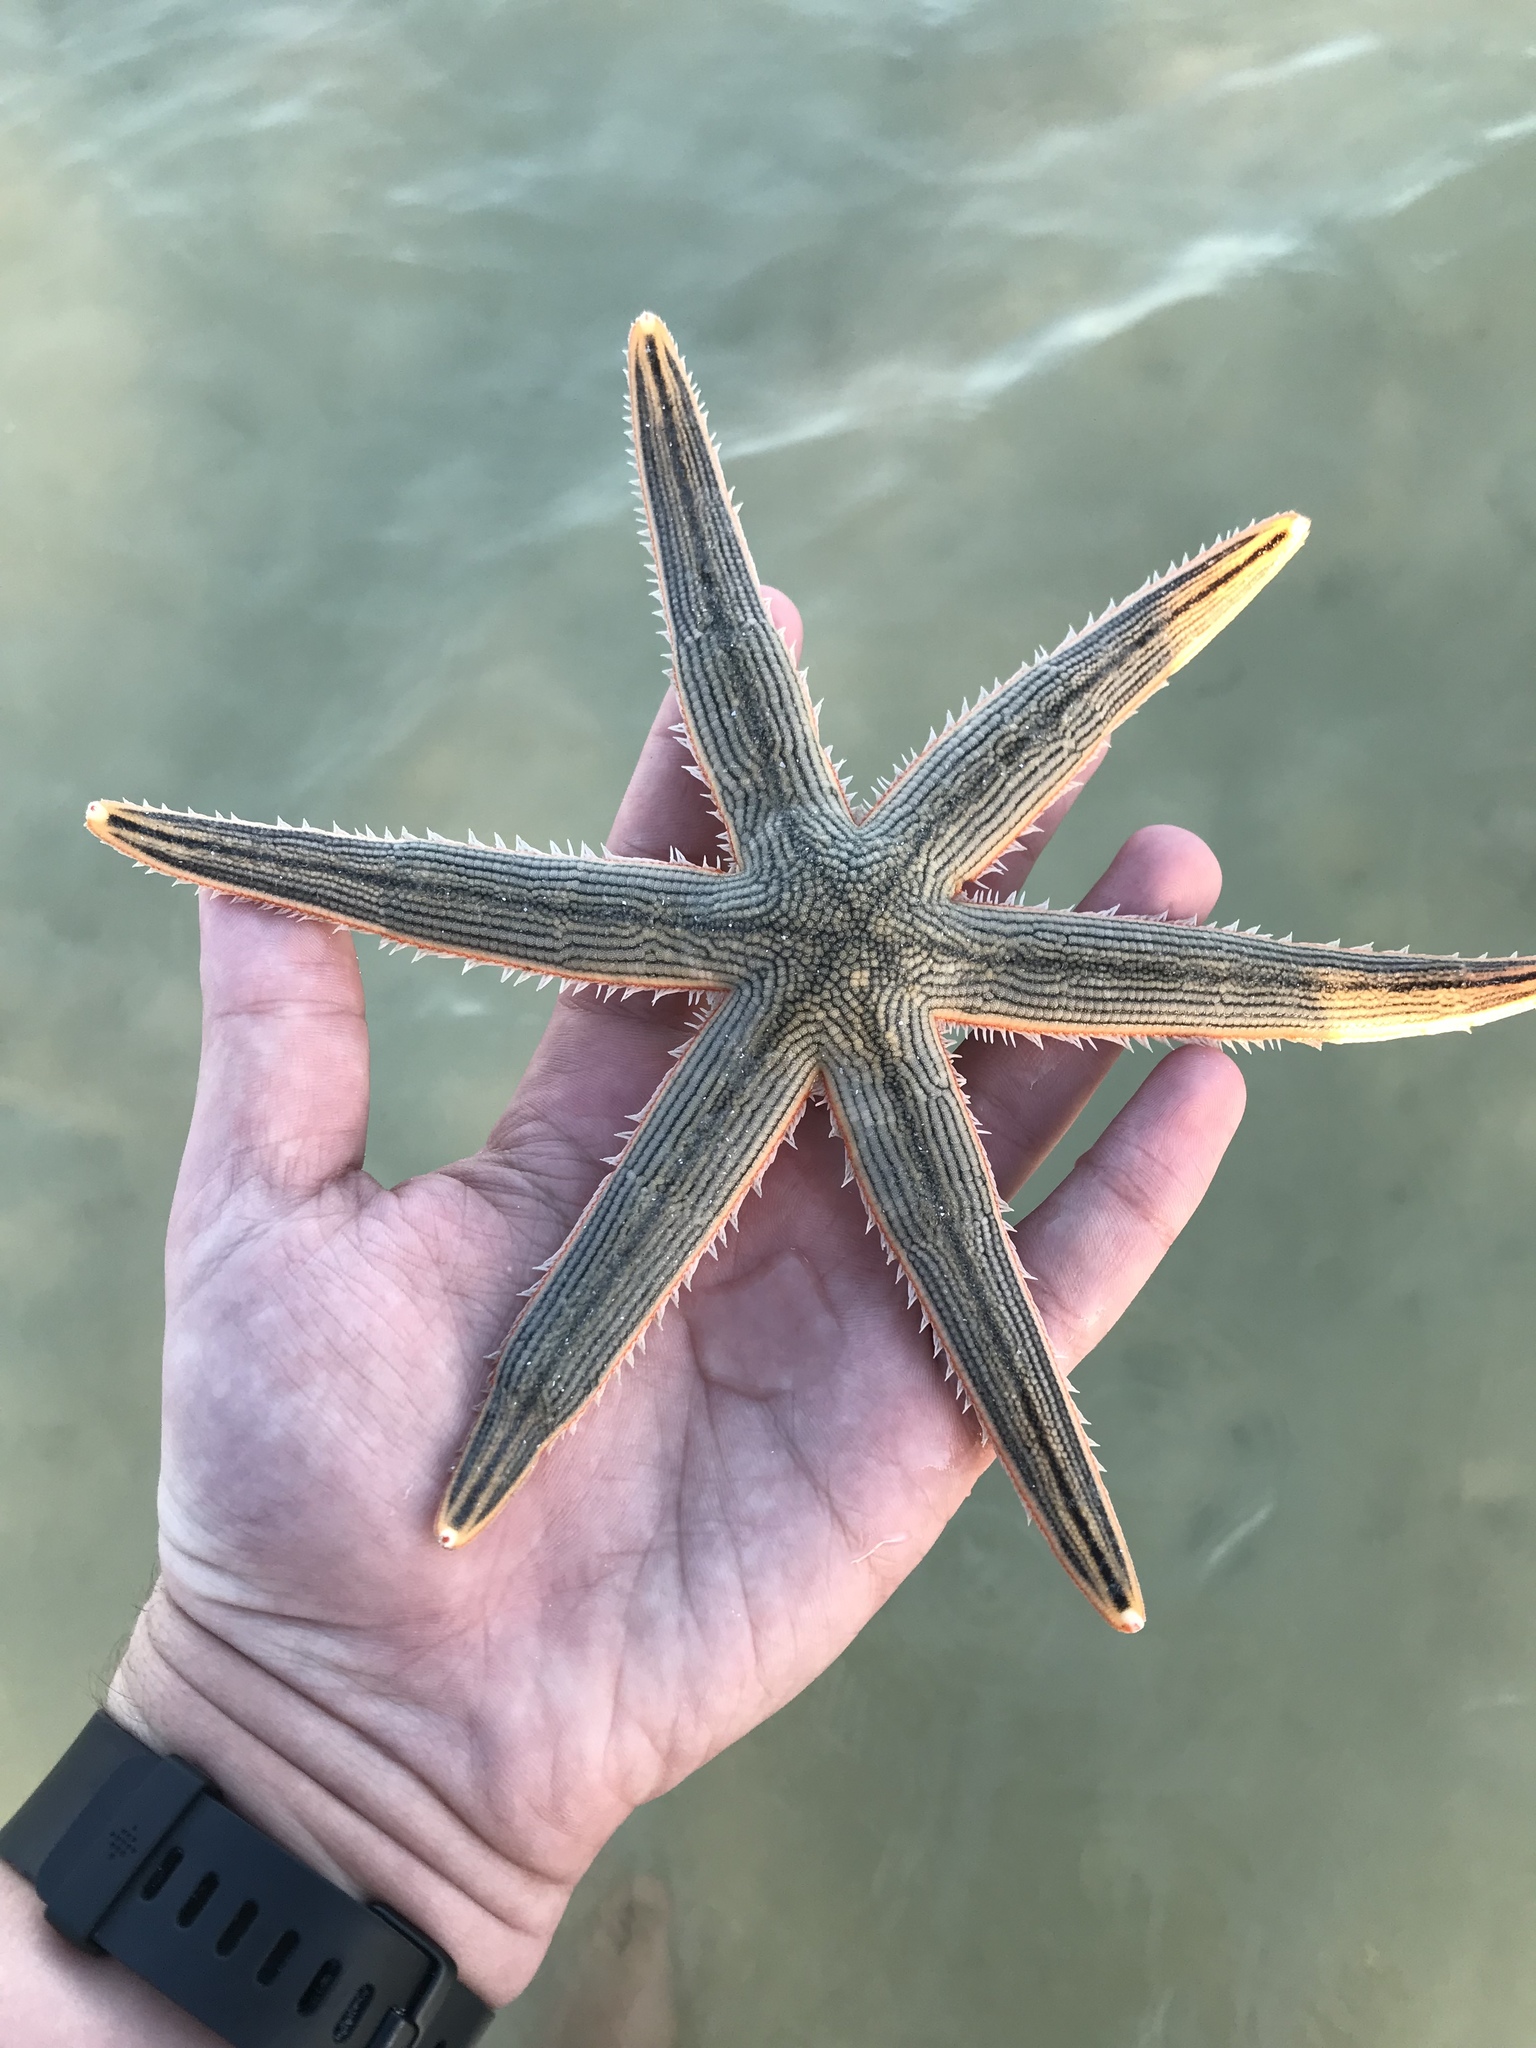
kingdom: Animalia
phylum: Echinodermata
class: Asteroidea
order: Paxillosida
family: Luidiidae
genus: Luidia
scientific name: Luidia clathrata
